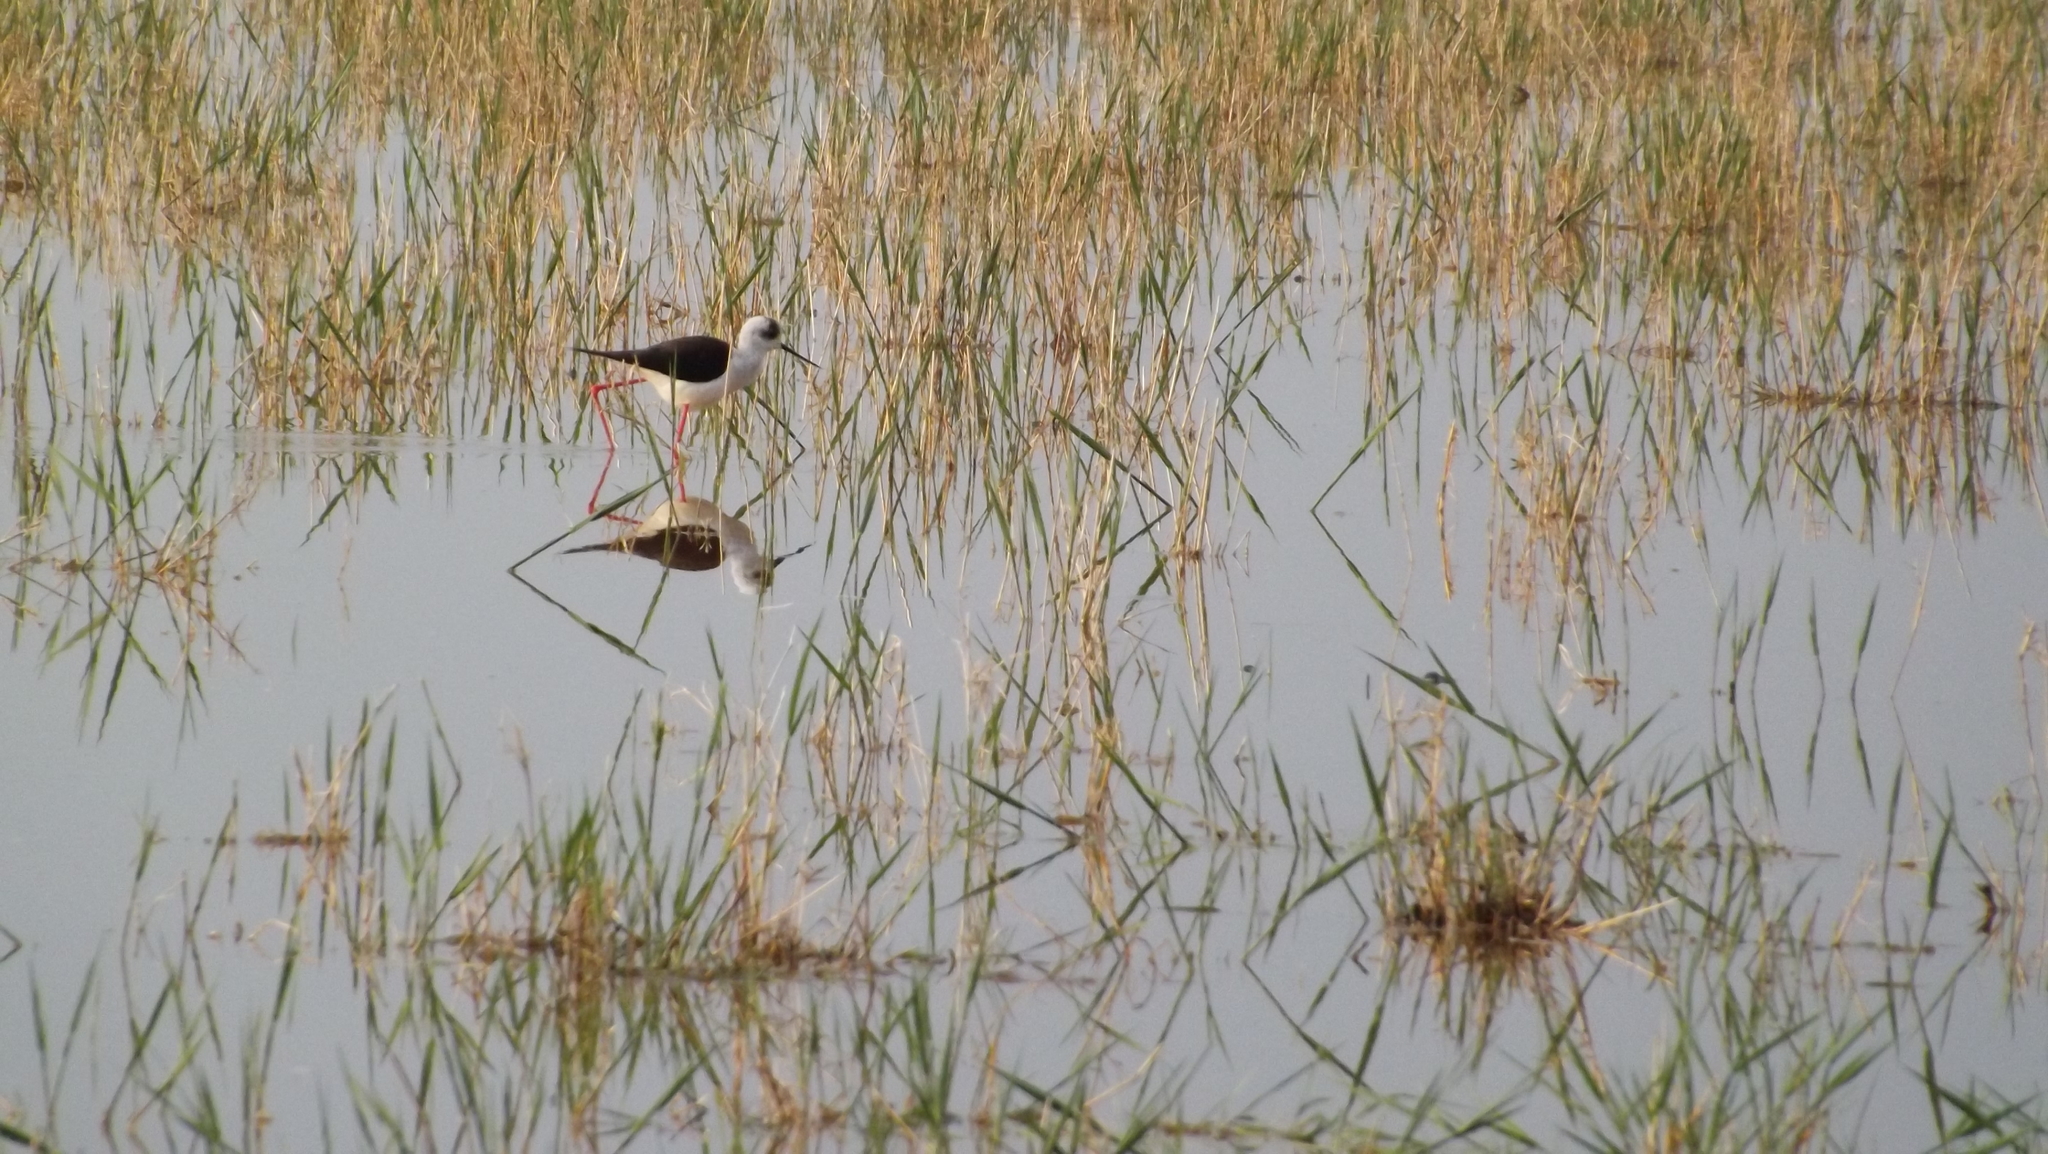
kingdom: Animalia
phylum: Chordata
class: Aves
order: Charadriiformes
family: Recurvirostridae
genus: Himantopus
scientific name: Himantopus himantopus
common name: Black-winged stilt
